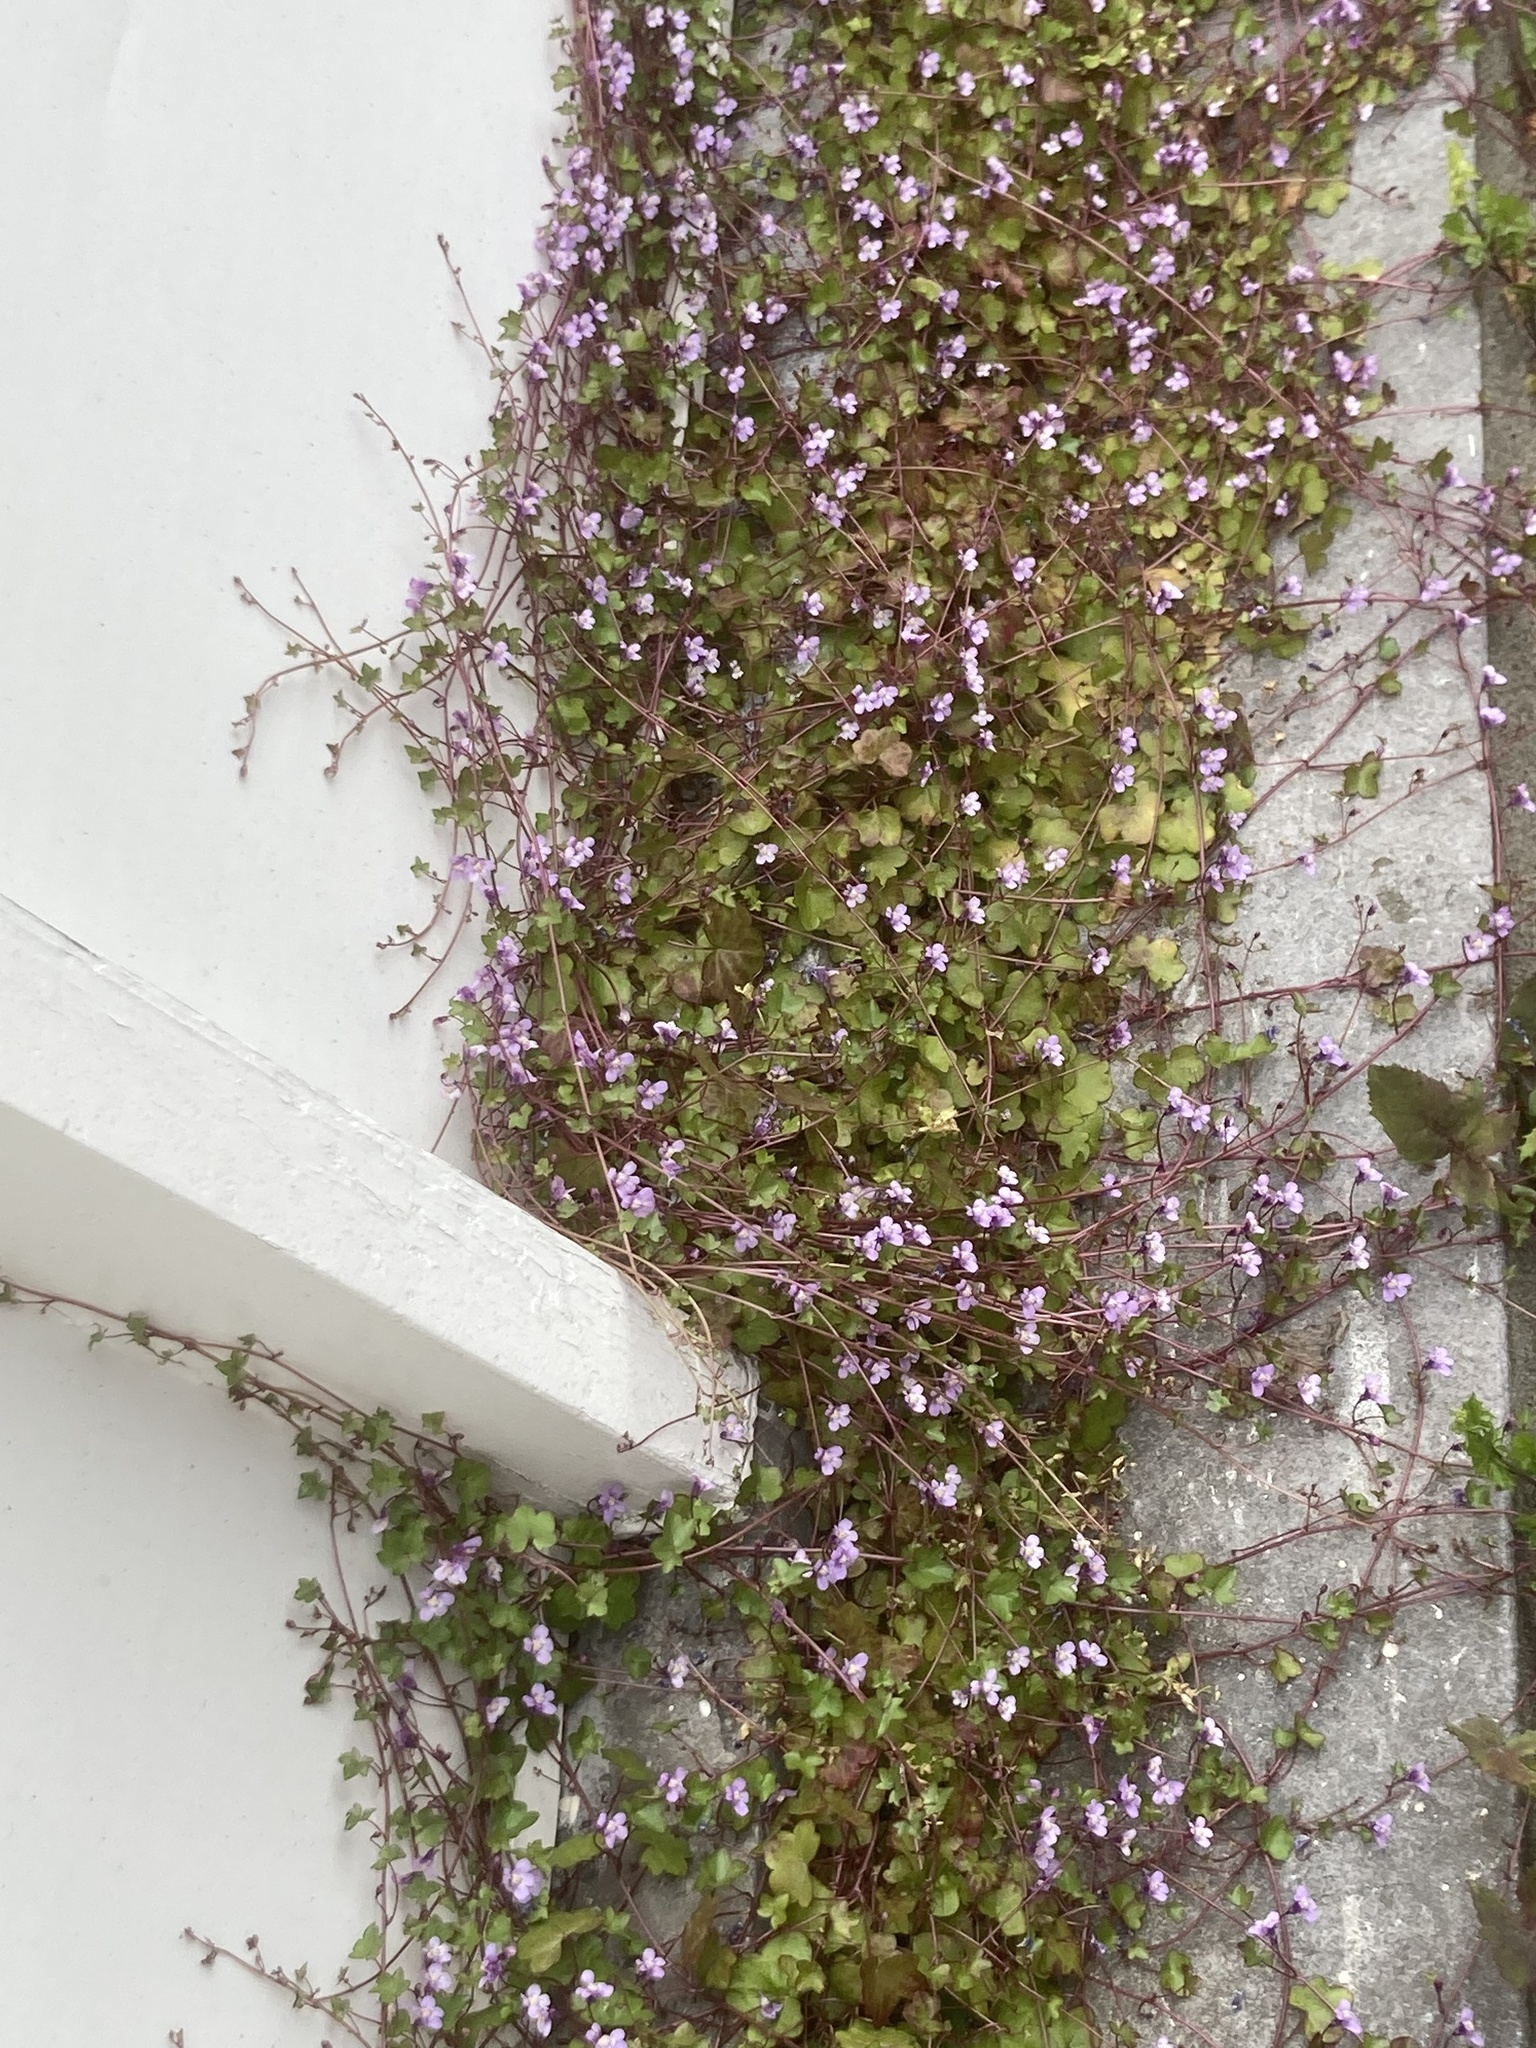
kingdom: Plantae
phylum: Tracheophyta
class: Magnoliopsida
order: Lamiales
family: Plantaginaceae
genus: Cymbalaria
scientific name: Cymbalaria muralis
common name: Ivy-leaved toadflax
